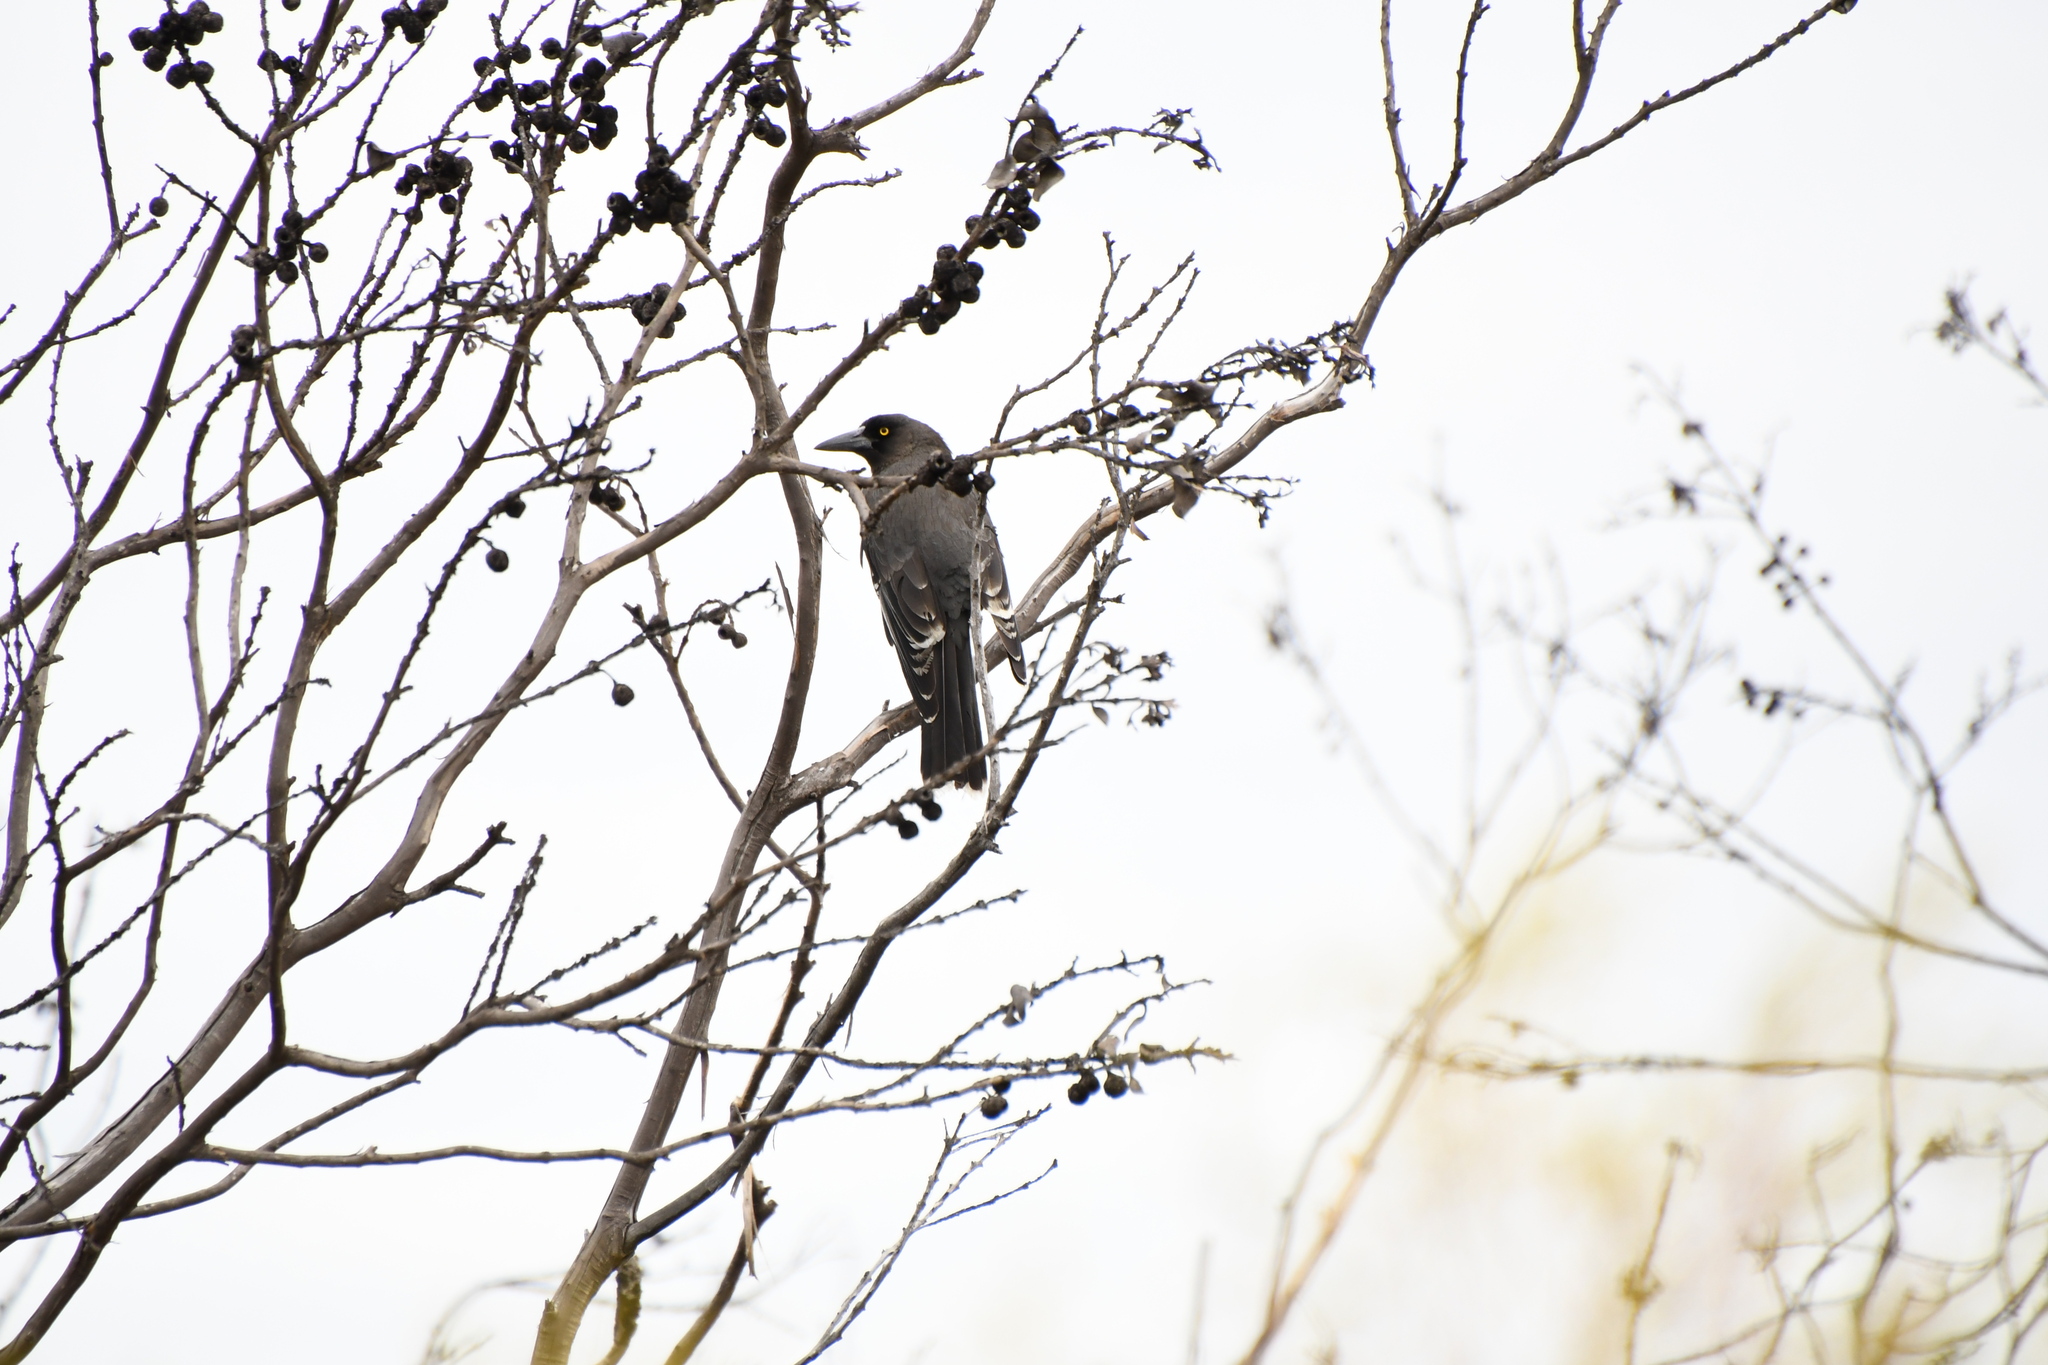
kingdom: Animalia
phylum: Chordata
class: Aves
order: Passeriformes
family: Cracticidae
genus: Strepera
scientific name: Strepera versicolor
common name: Grey currawong
